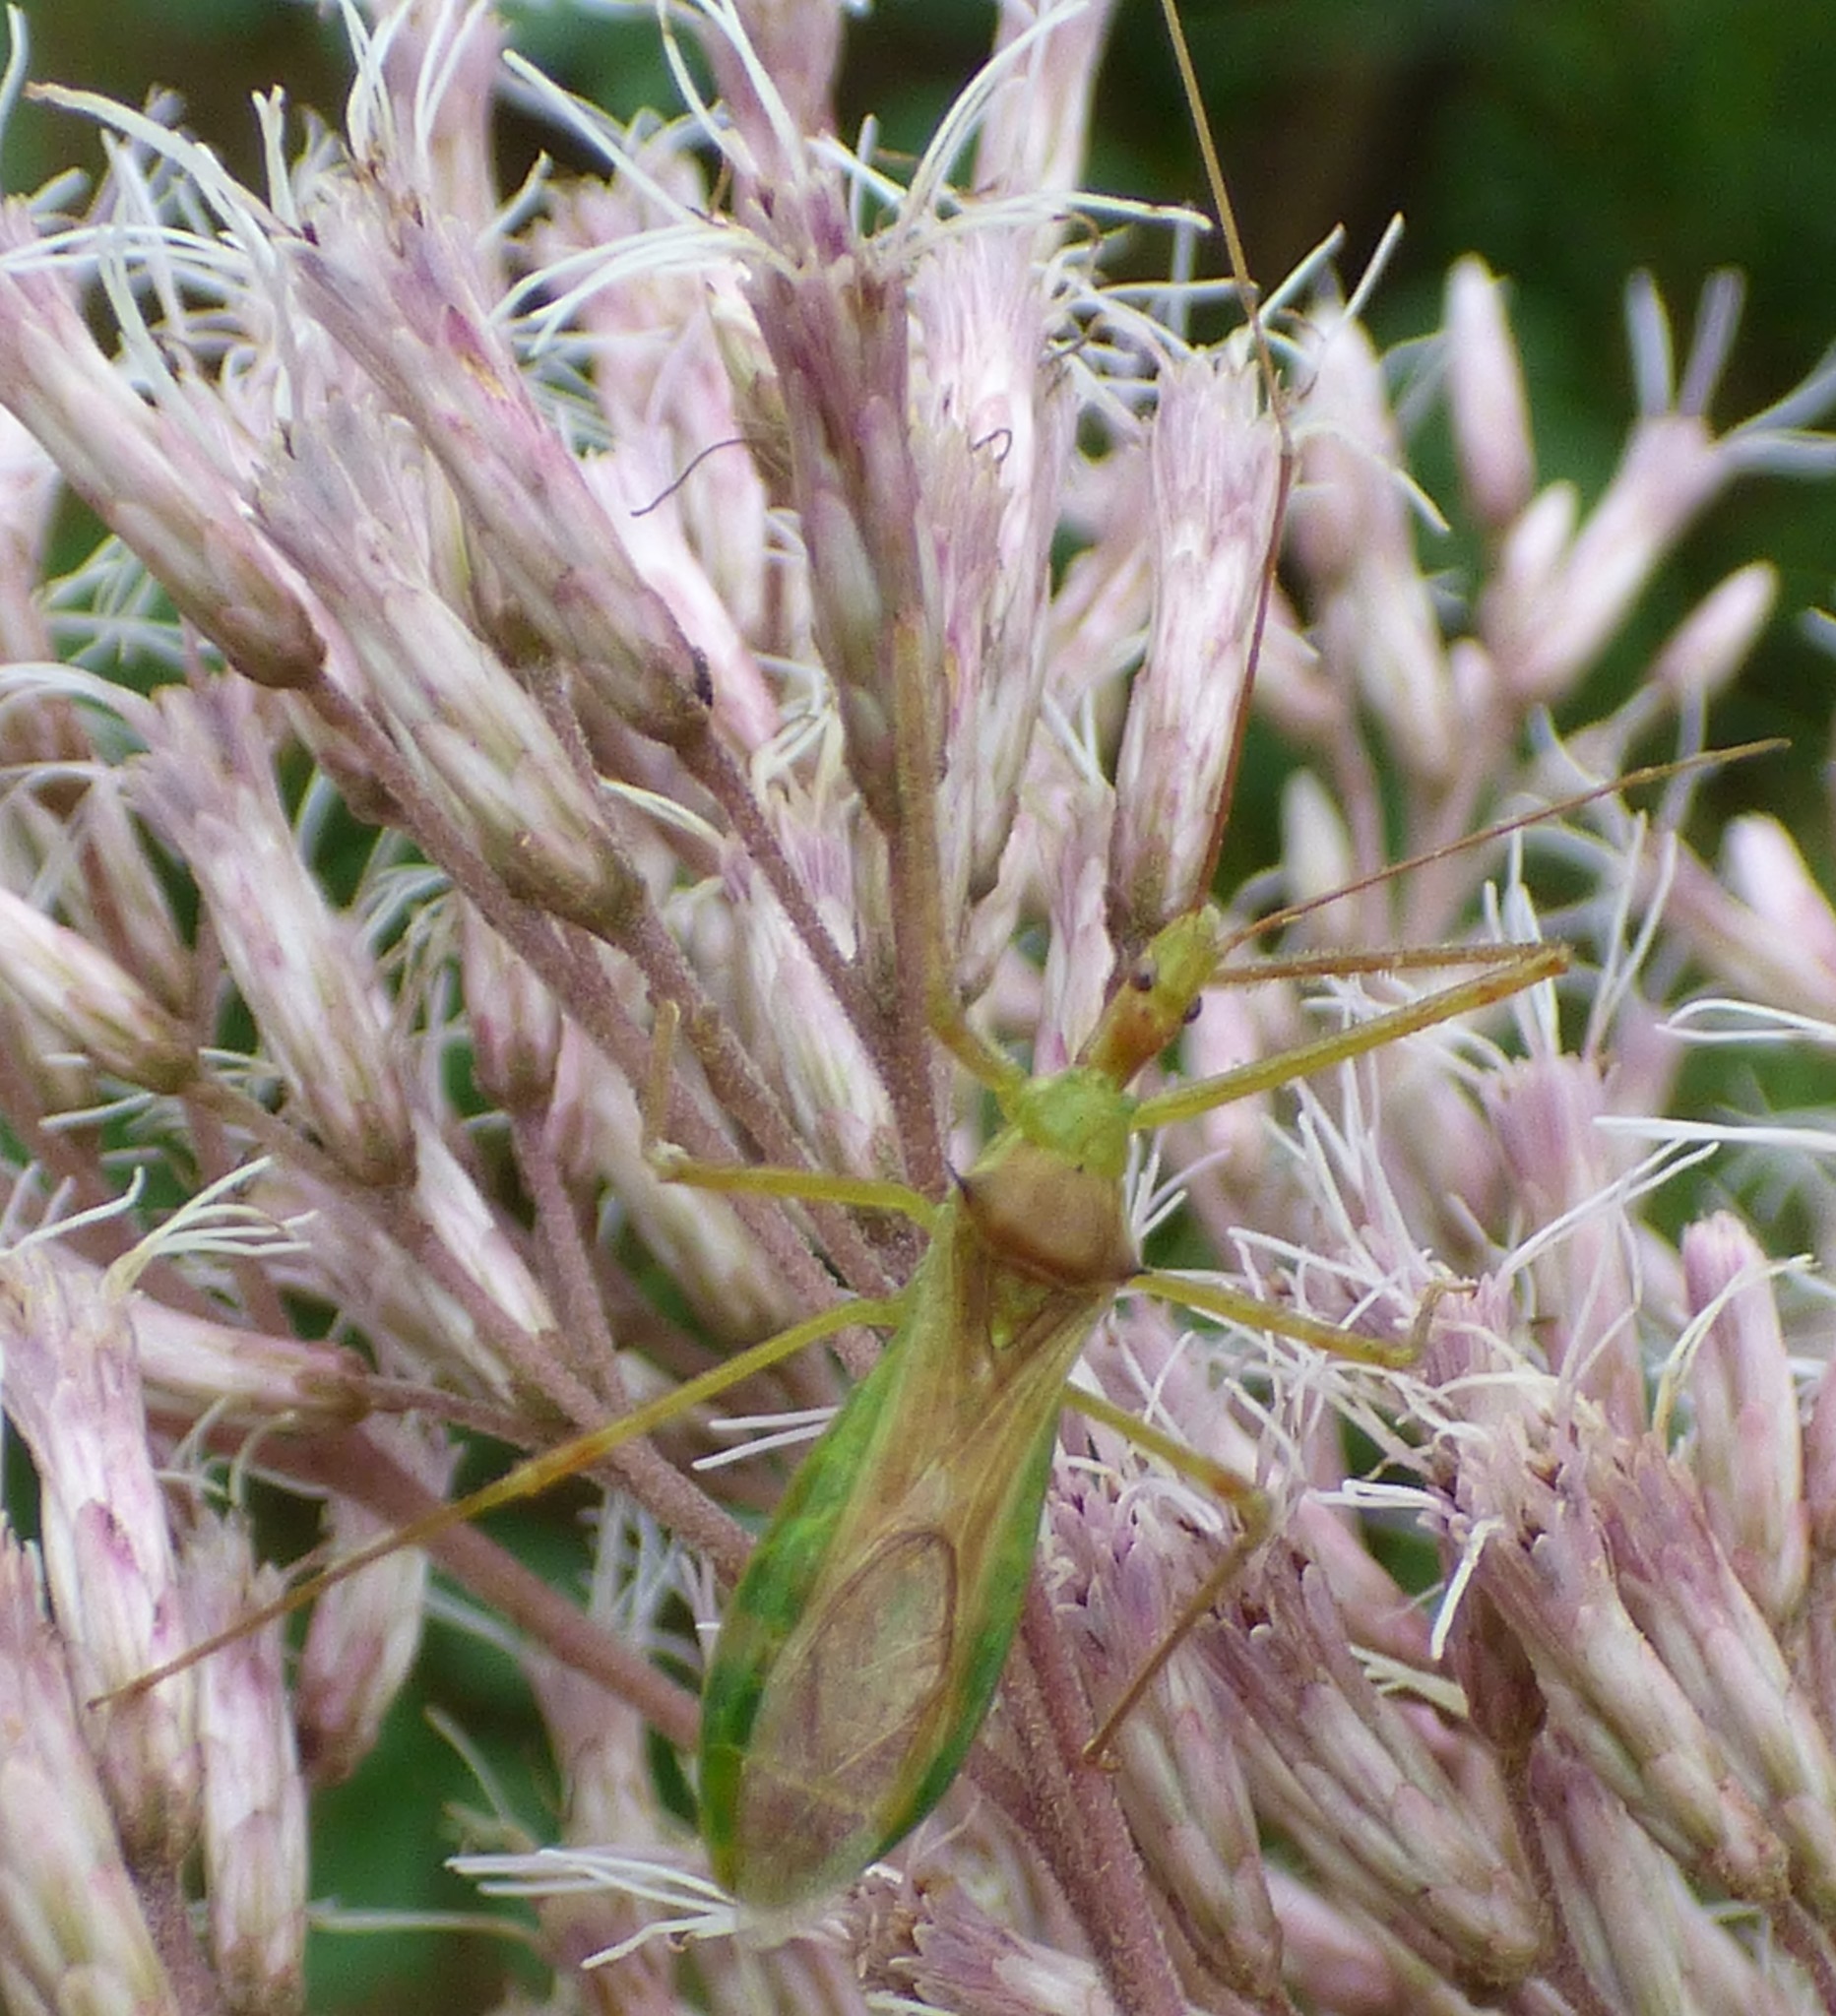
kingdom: Animalia
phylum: Arthropoda
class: Insecta
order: Hemiptera
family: Reduviidae
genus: Zelus
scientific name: Zelus luridus
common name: Pale green assassin bug
